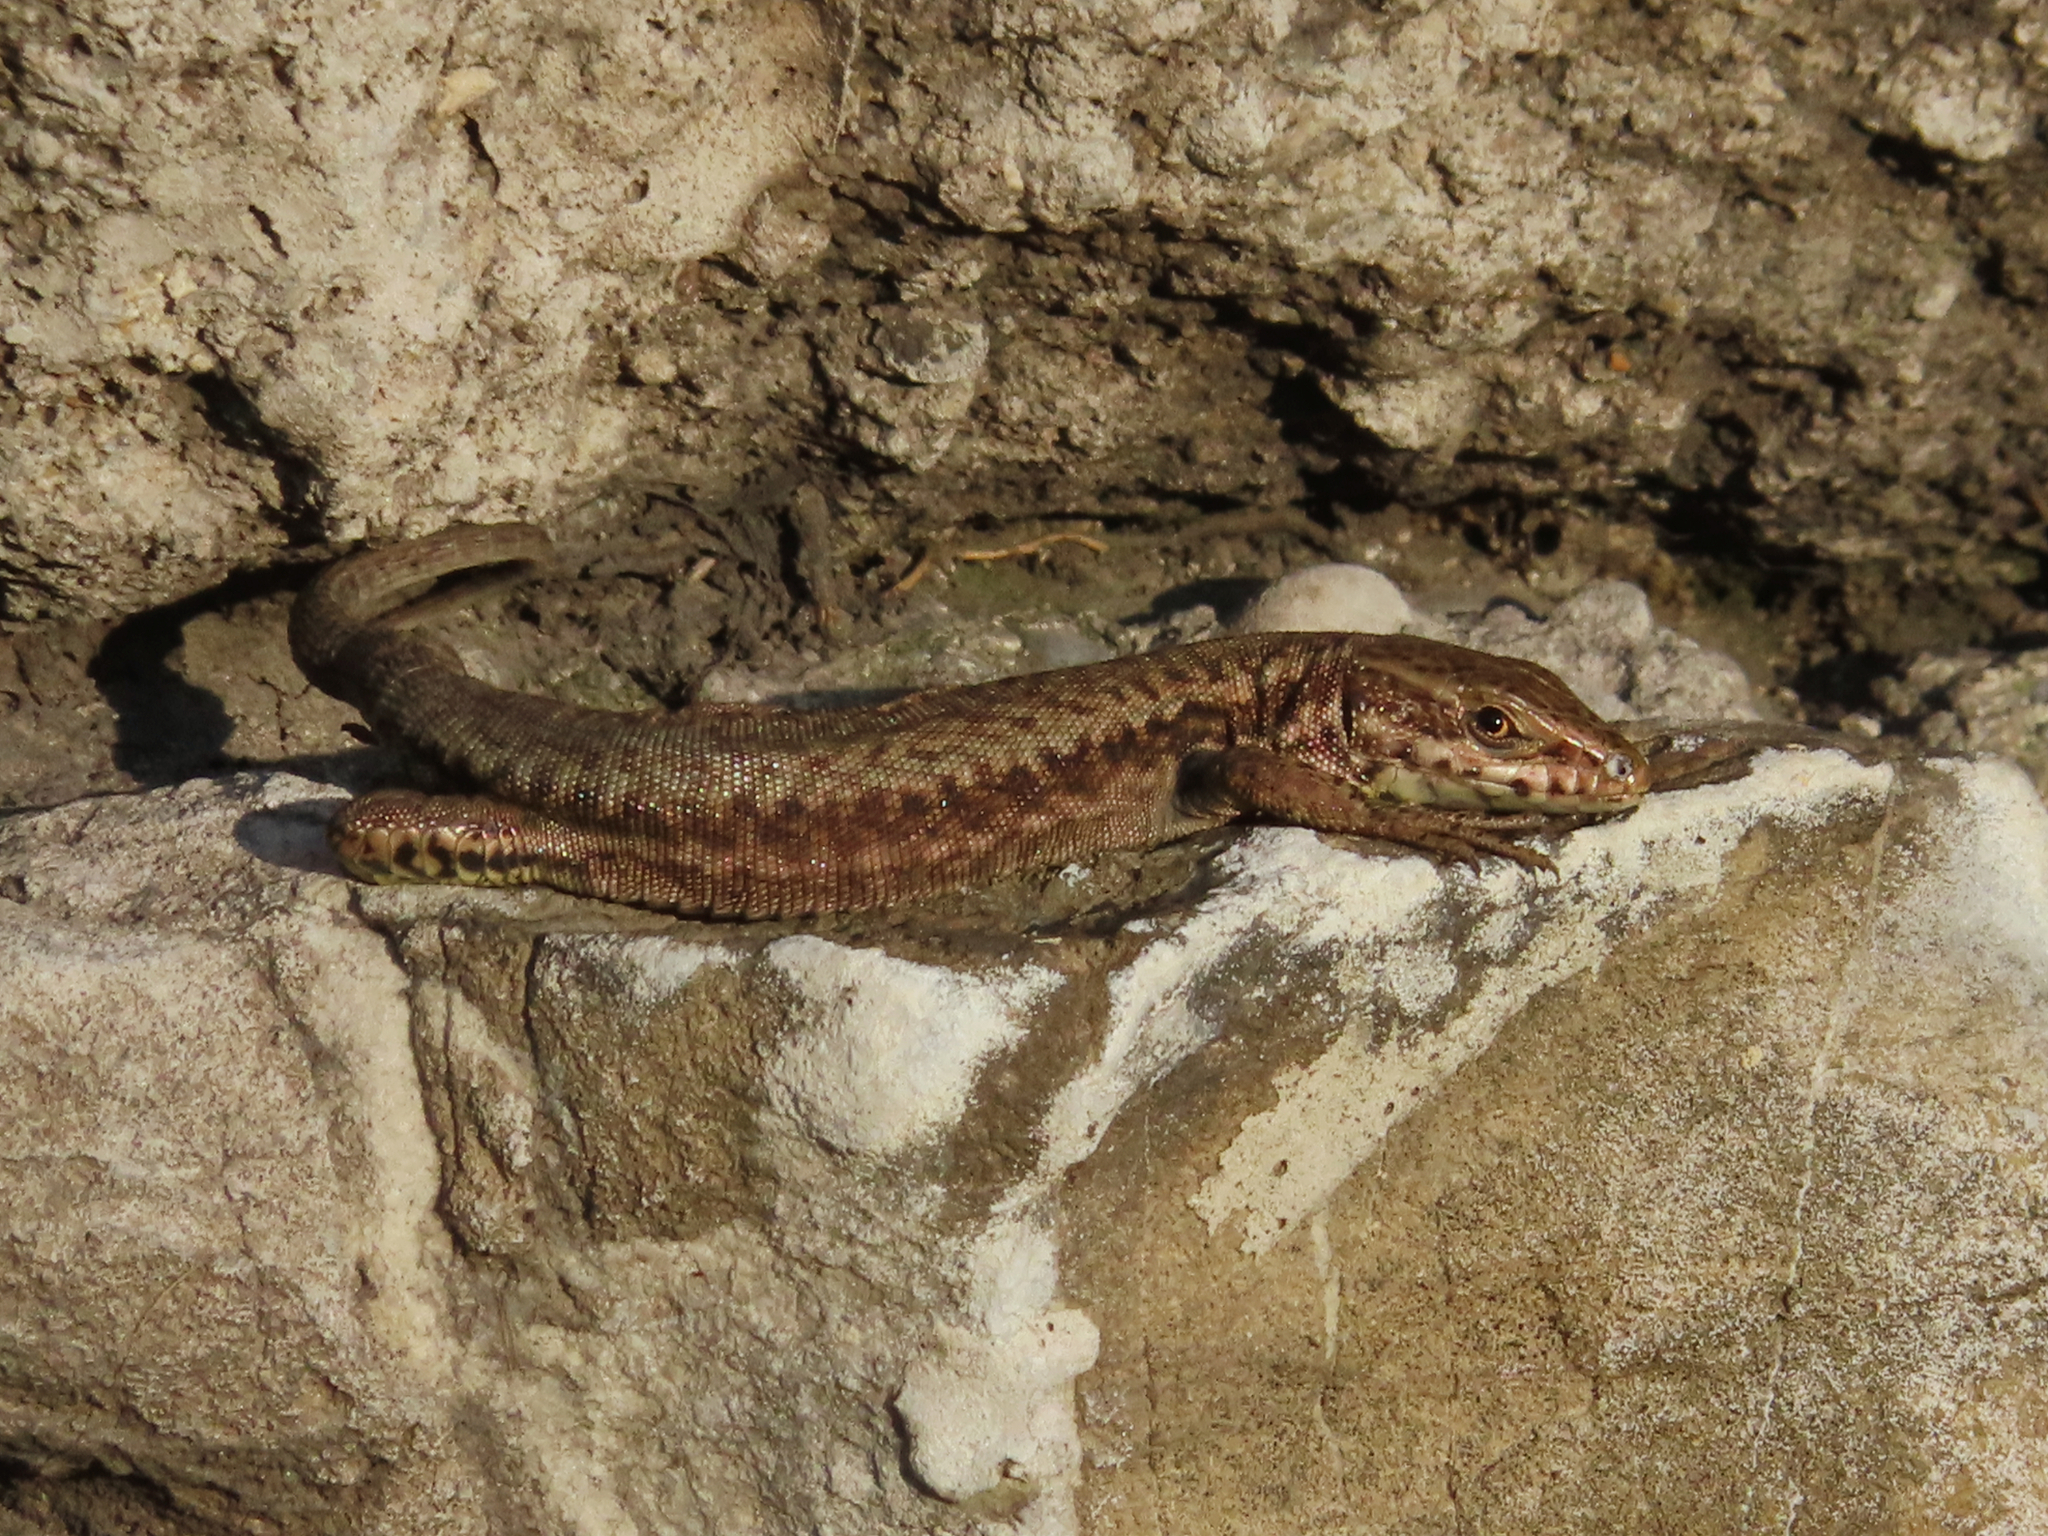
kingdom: Animalia
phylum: Chordata
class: Squamata
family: Lacertidae
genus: Podarcis
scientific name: Podarcis muralis
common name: Common wall lizard
